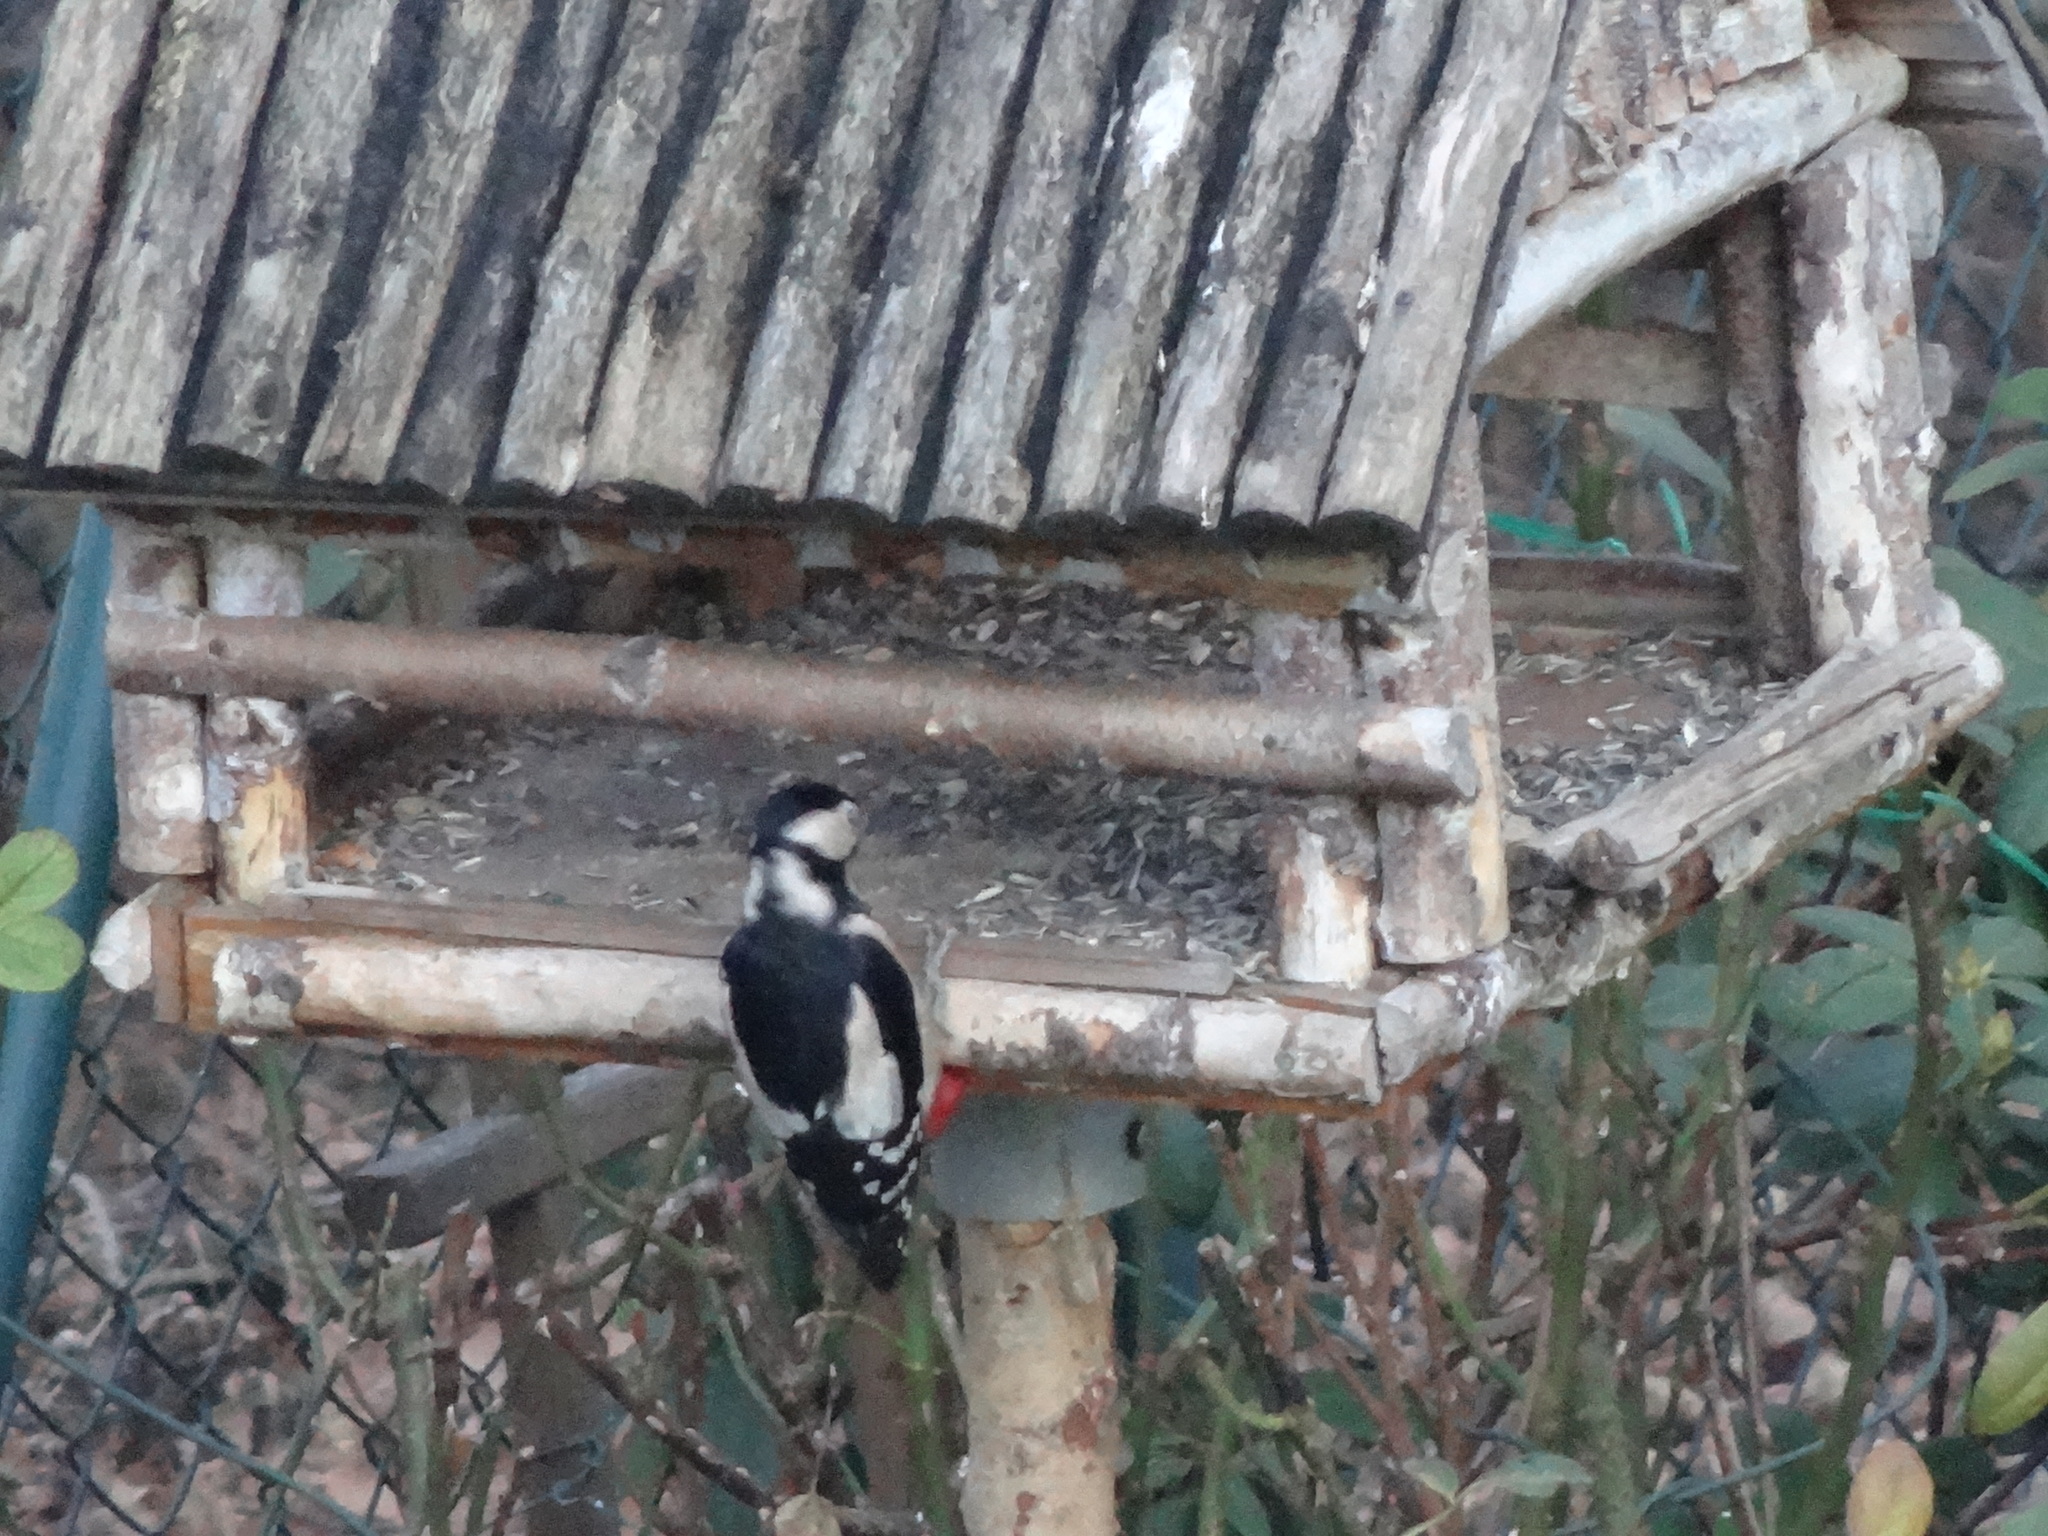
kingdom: Animalia
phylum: Chordata
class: Aves
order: Piciformes
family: Picidae
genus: Dendrocopos
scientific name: Dendrocopos major
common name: Great spotted woodpecker
